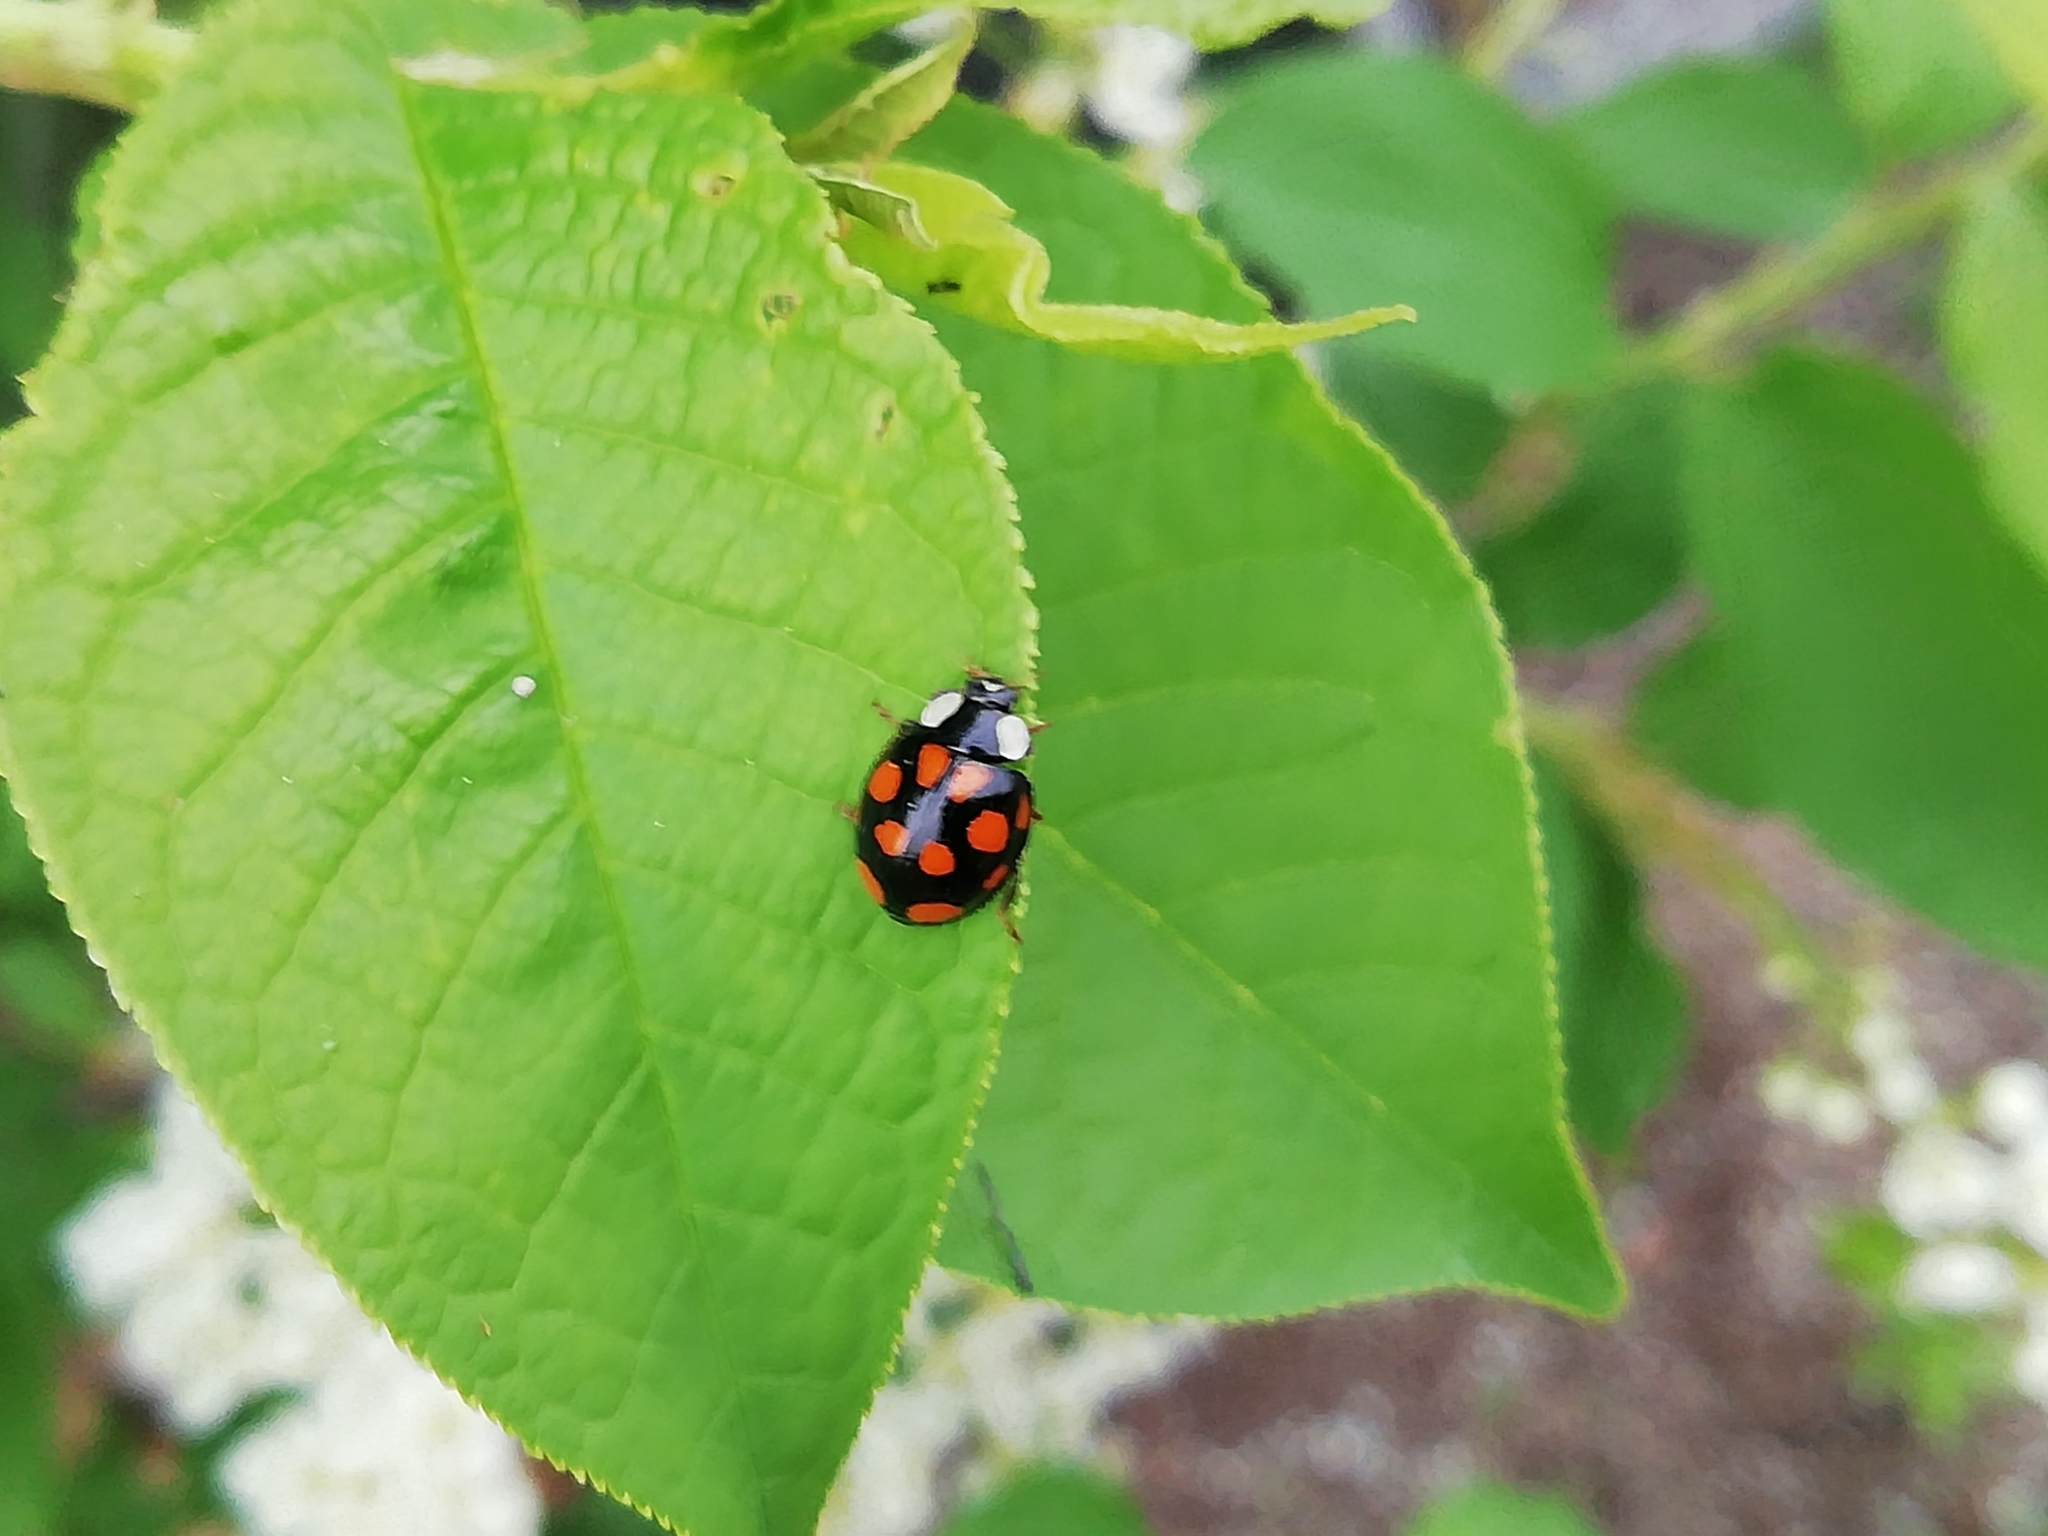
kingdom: Animalia
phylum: Arthropoda
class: Insecta
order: Coleoptera
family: Coccinellidae
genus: Harmonia
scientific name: Harmonia axyridis
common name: Harlequin ladybird
